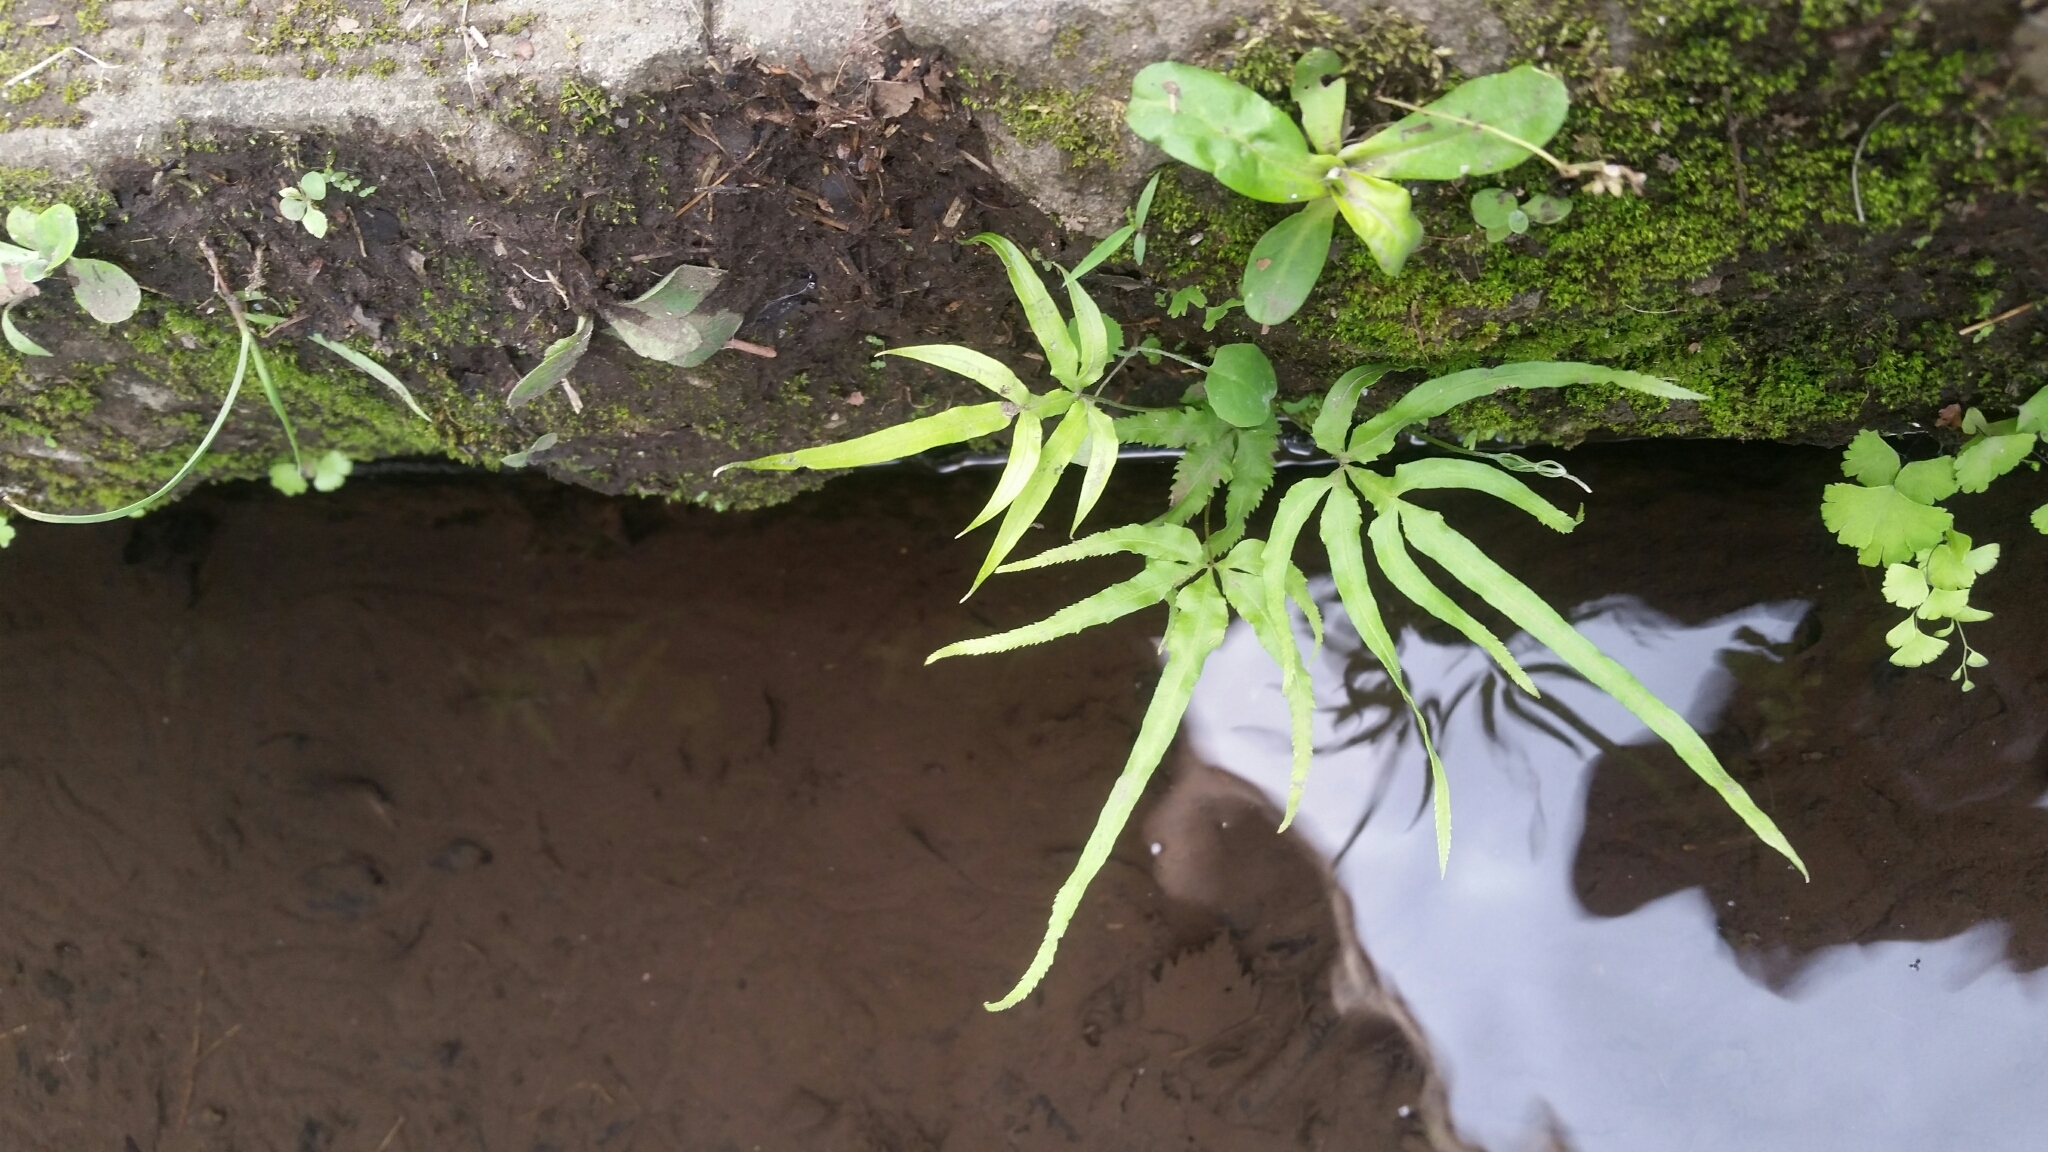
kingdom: Plantae
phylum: Tracheophyta
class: Polypodiopsida
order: Polypodiales
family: Pteridaceae
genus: Pteris
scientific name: Pteris multifida
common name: Spider brake
